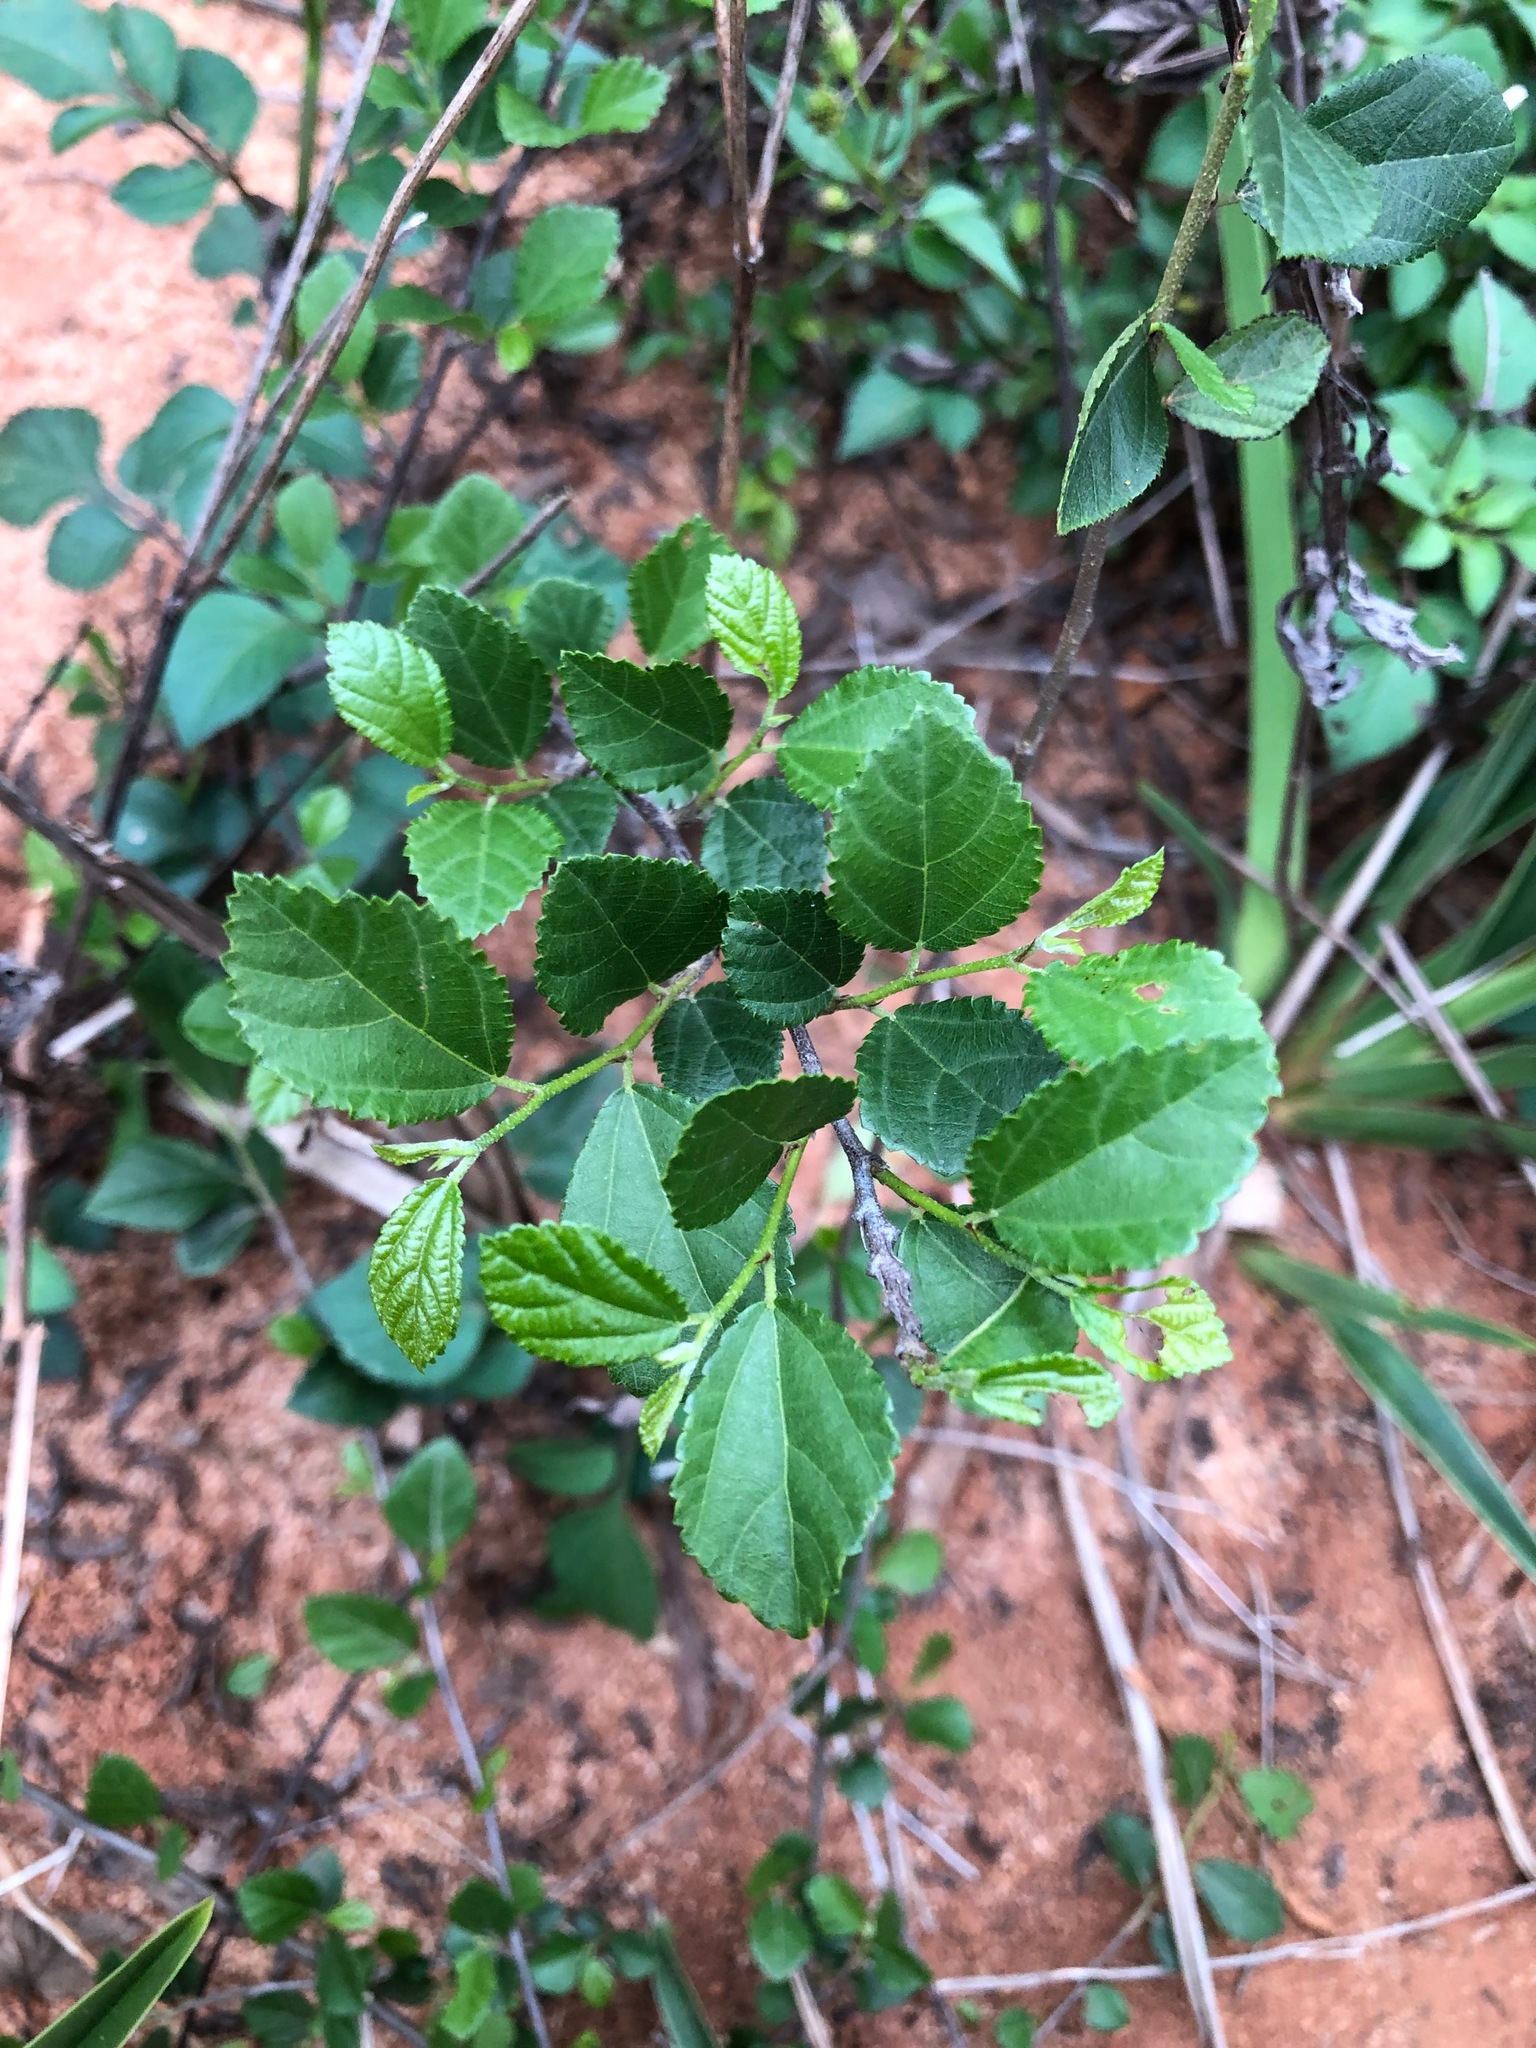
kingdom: Plantae
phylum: Tracheophyta
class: Magnoliopsida
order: Malvales
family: Malvaceae
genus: Grewia
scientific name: Grewia rhombifolia
